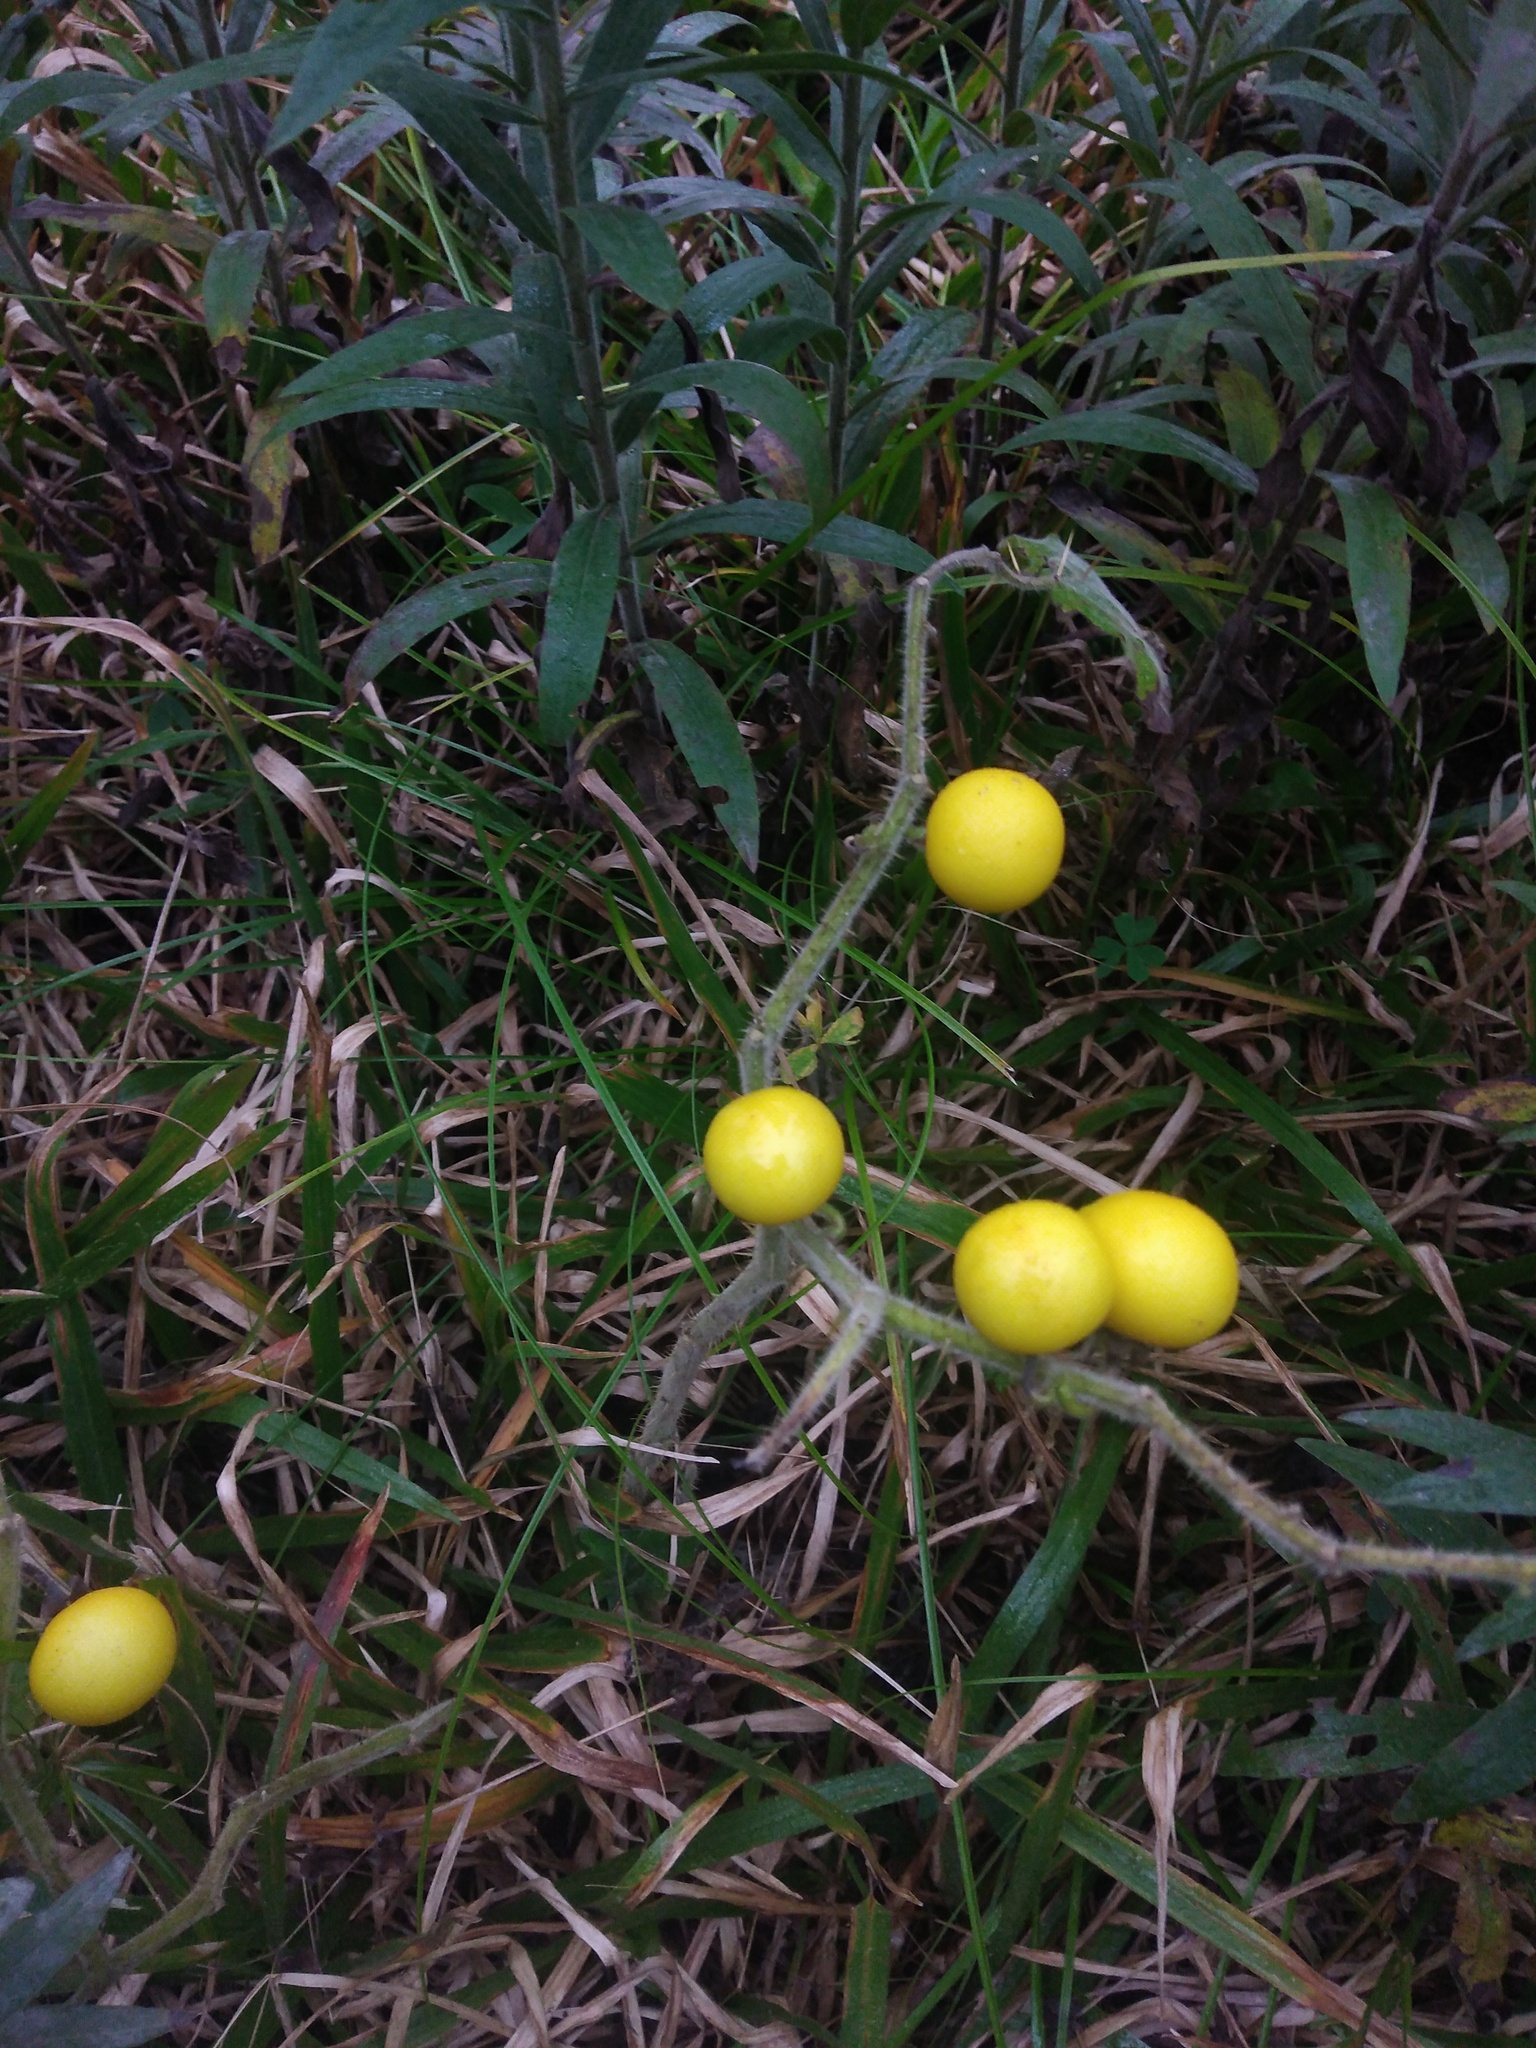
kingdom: Plantae
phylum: Tracheophyta
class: Magnoliopsida
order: Solanales
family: Solanaceae
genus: Solanum
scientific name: Solanum viarum
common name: Tropical soda apple
